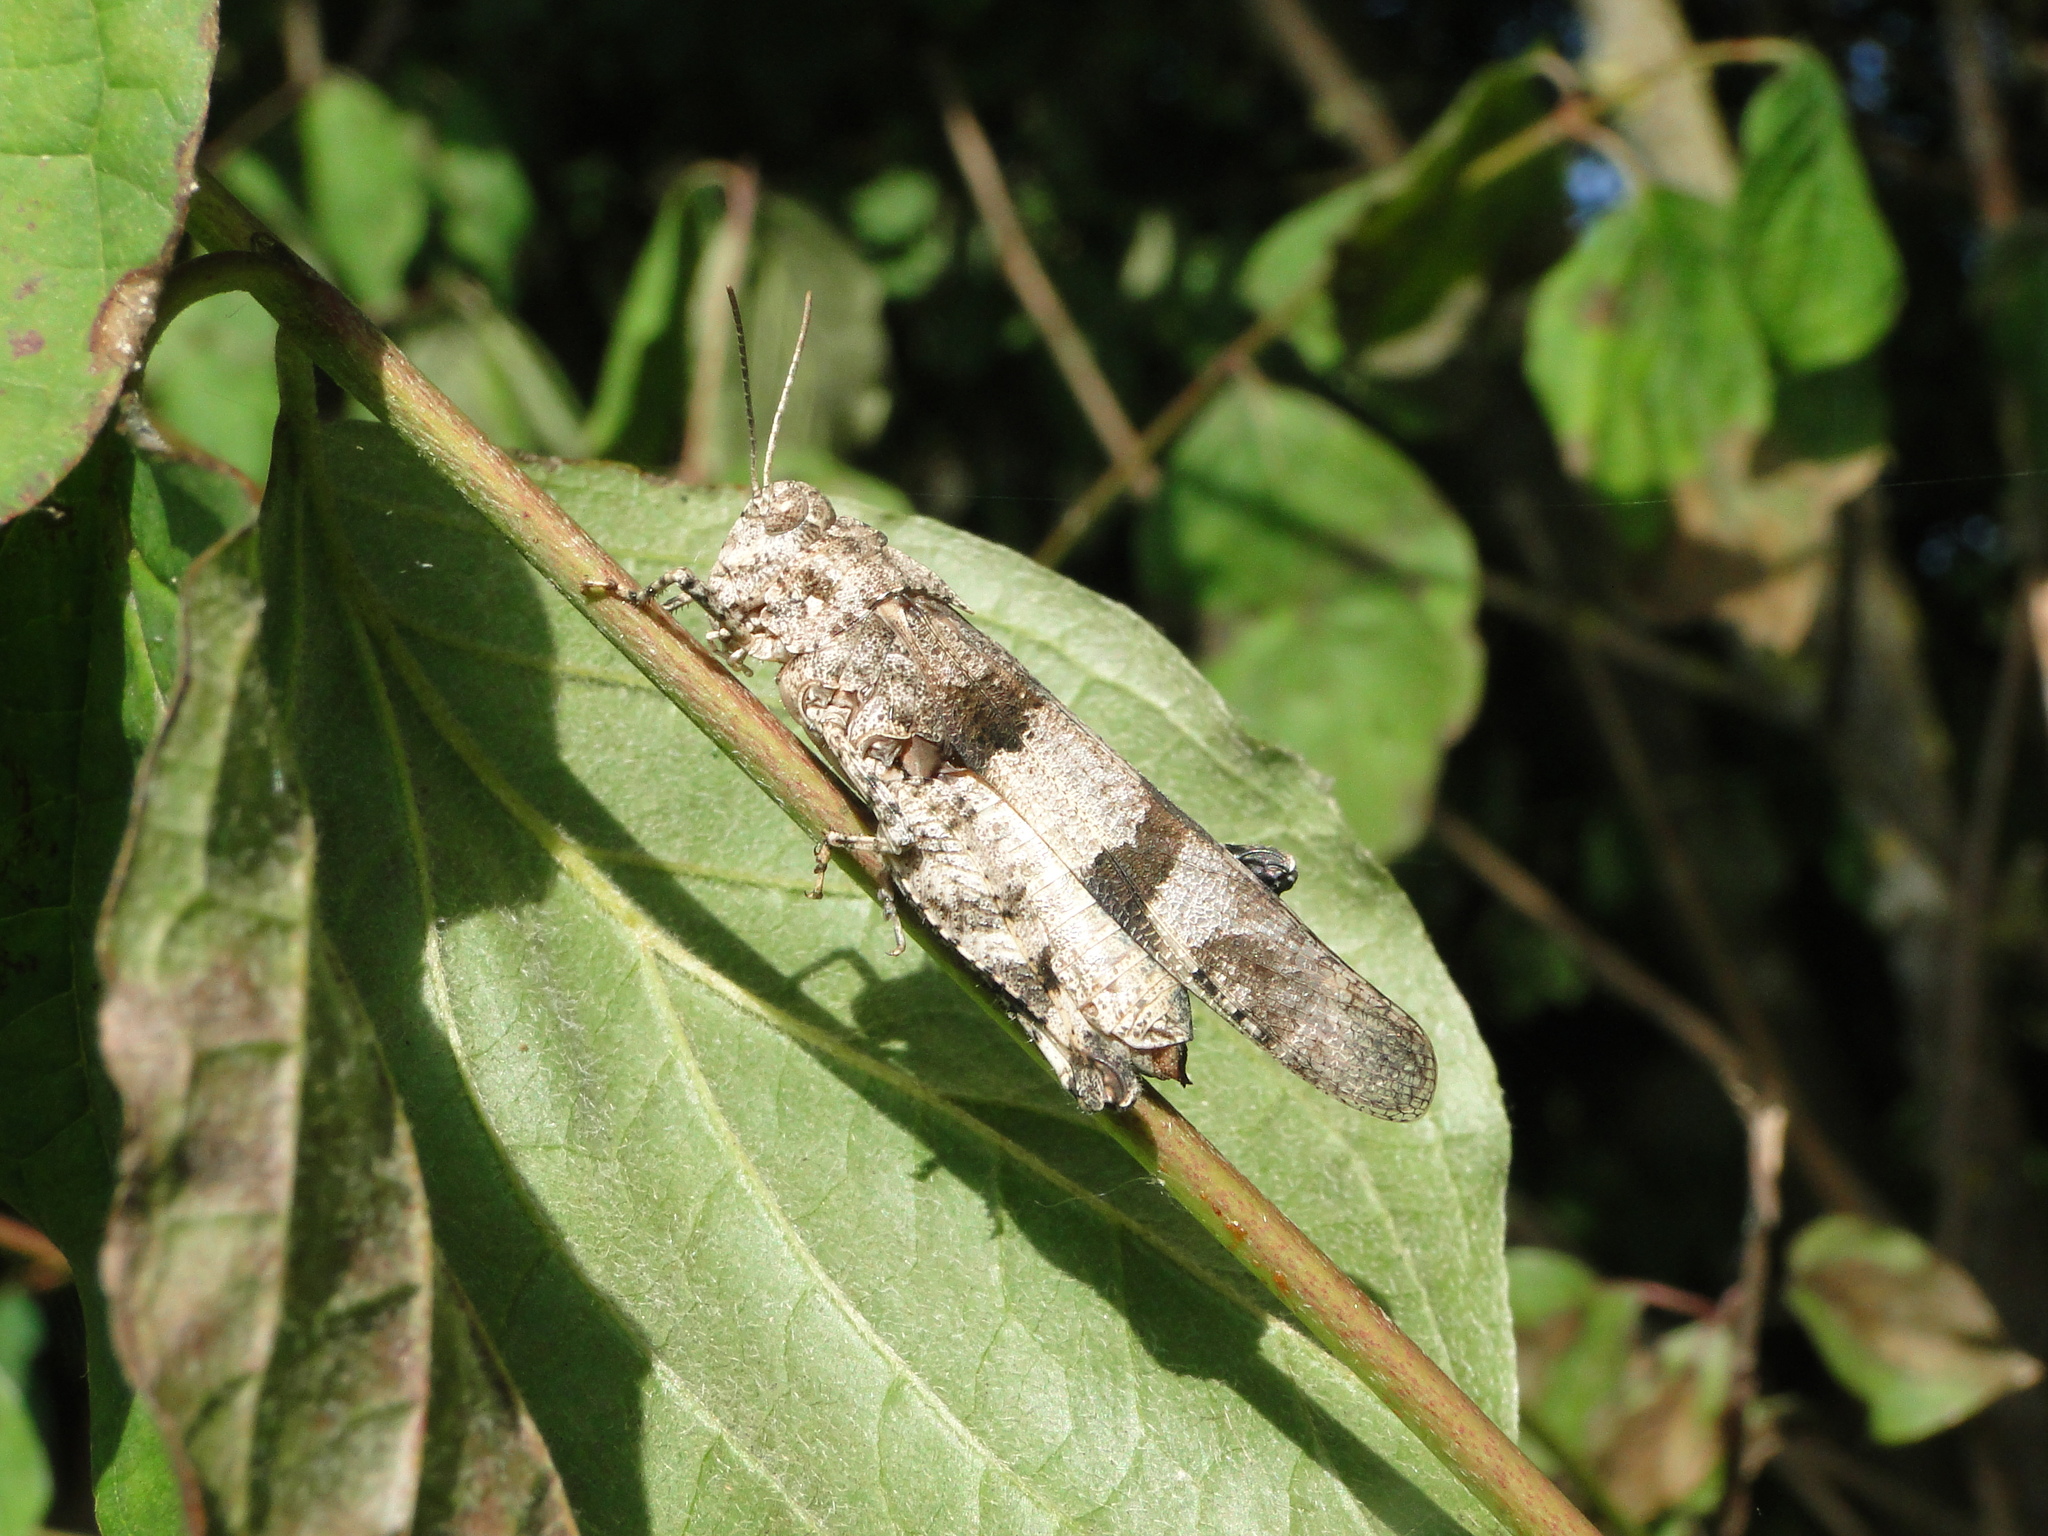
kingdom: Animalia
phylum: Arthropoda
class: Insecta
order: Orthoptera
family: Acrididae
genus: Oedipoda
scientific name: Oedipoda caerulescens
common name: Blue-winged grasshopper
